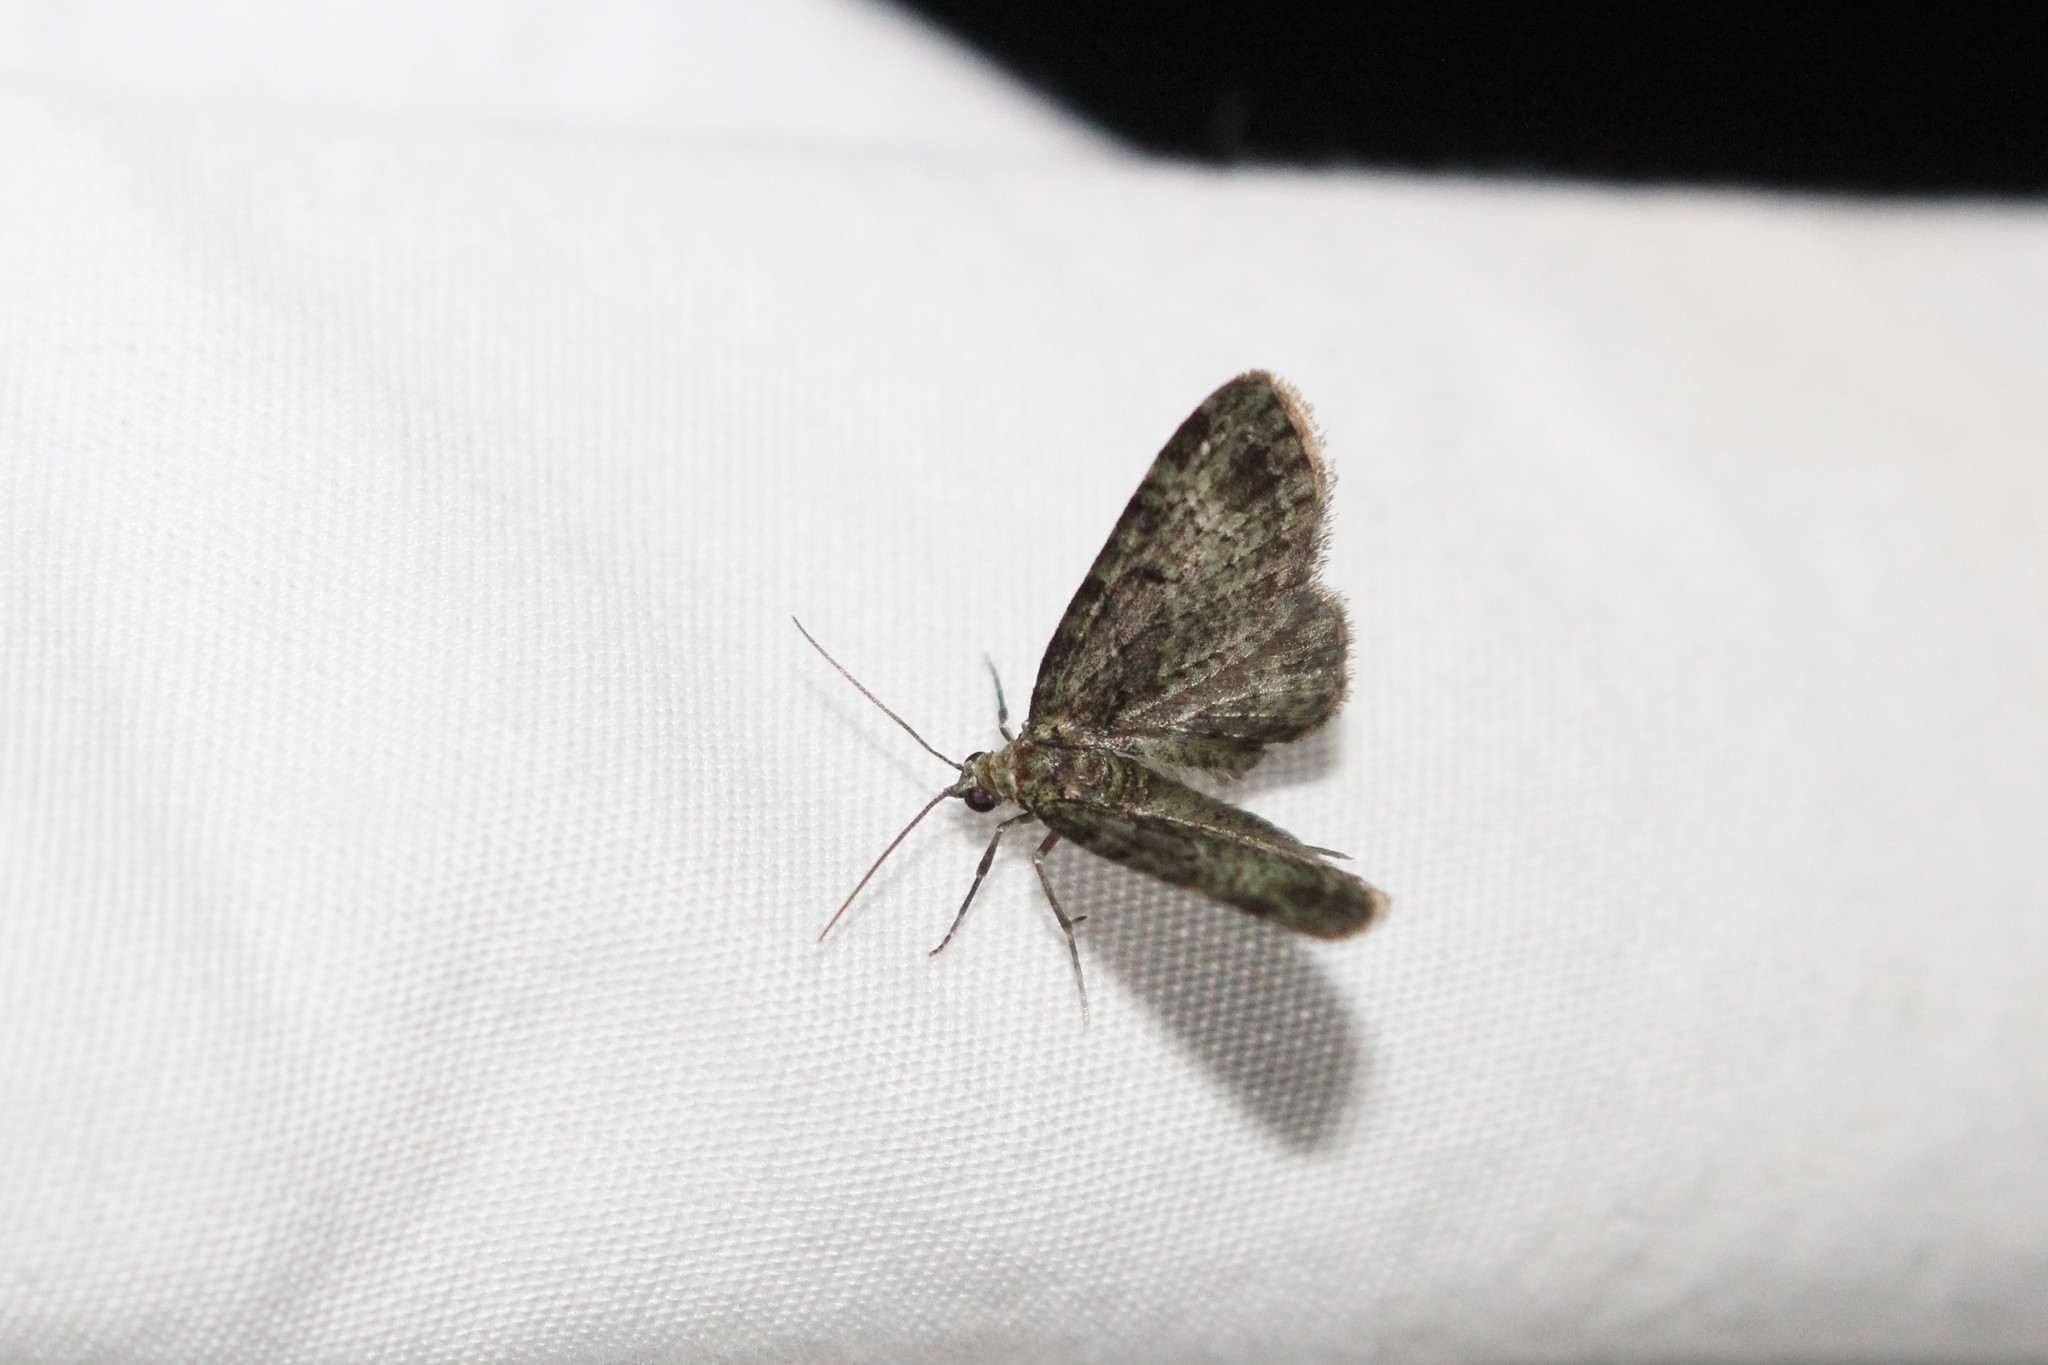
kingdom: Animalia
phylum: Arthropoda
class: Insecta
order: Lepidoptera
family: Geometridae
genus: Pasiphila
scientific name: Pasiphila rectangulata
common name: Green pug
